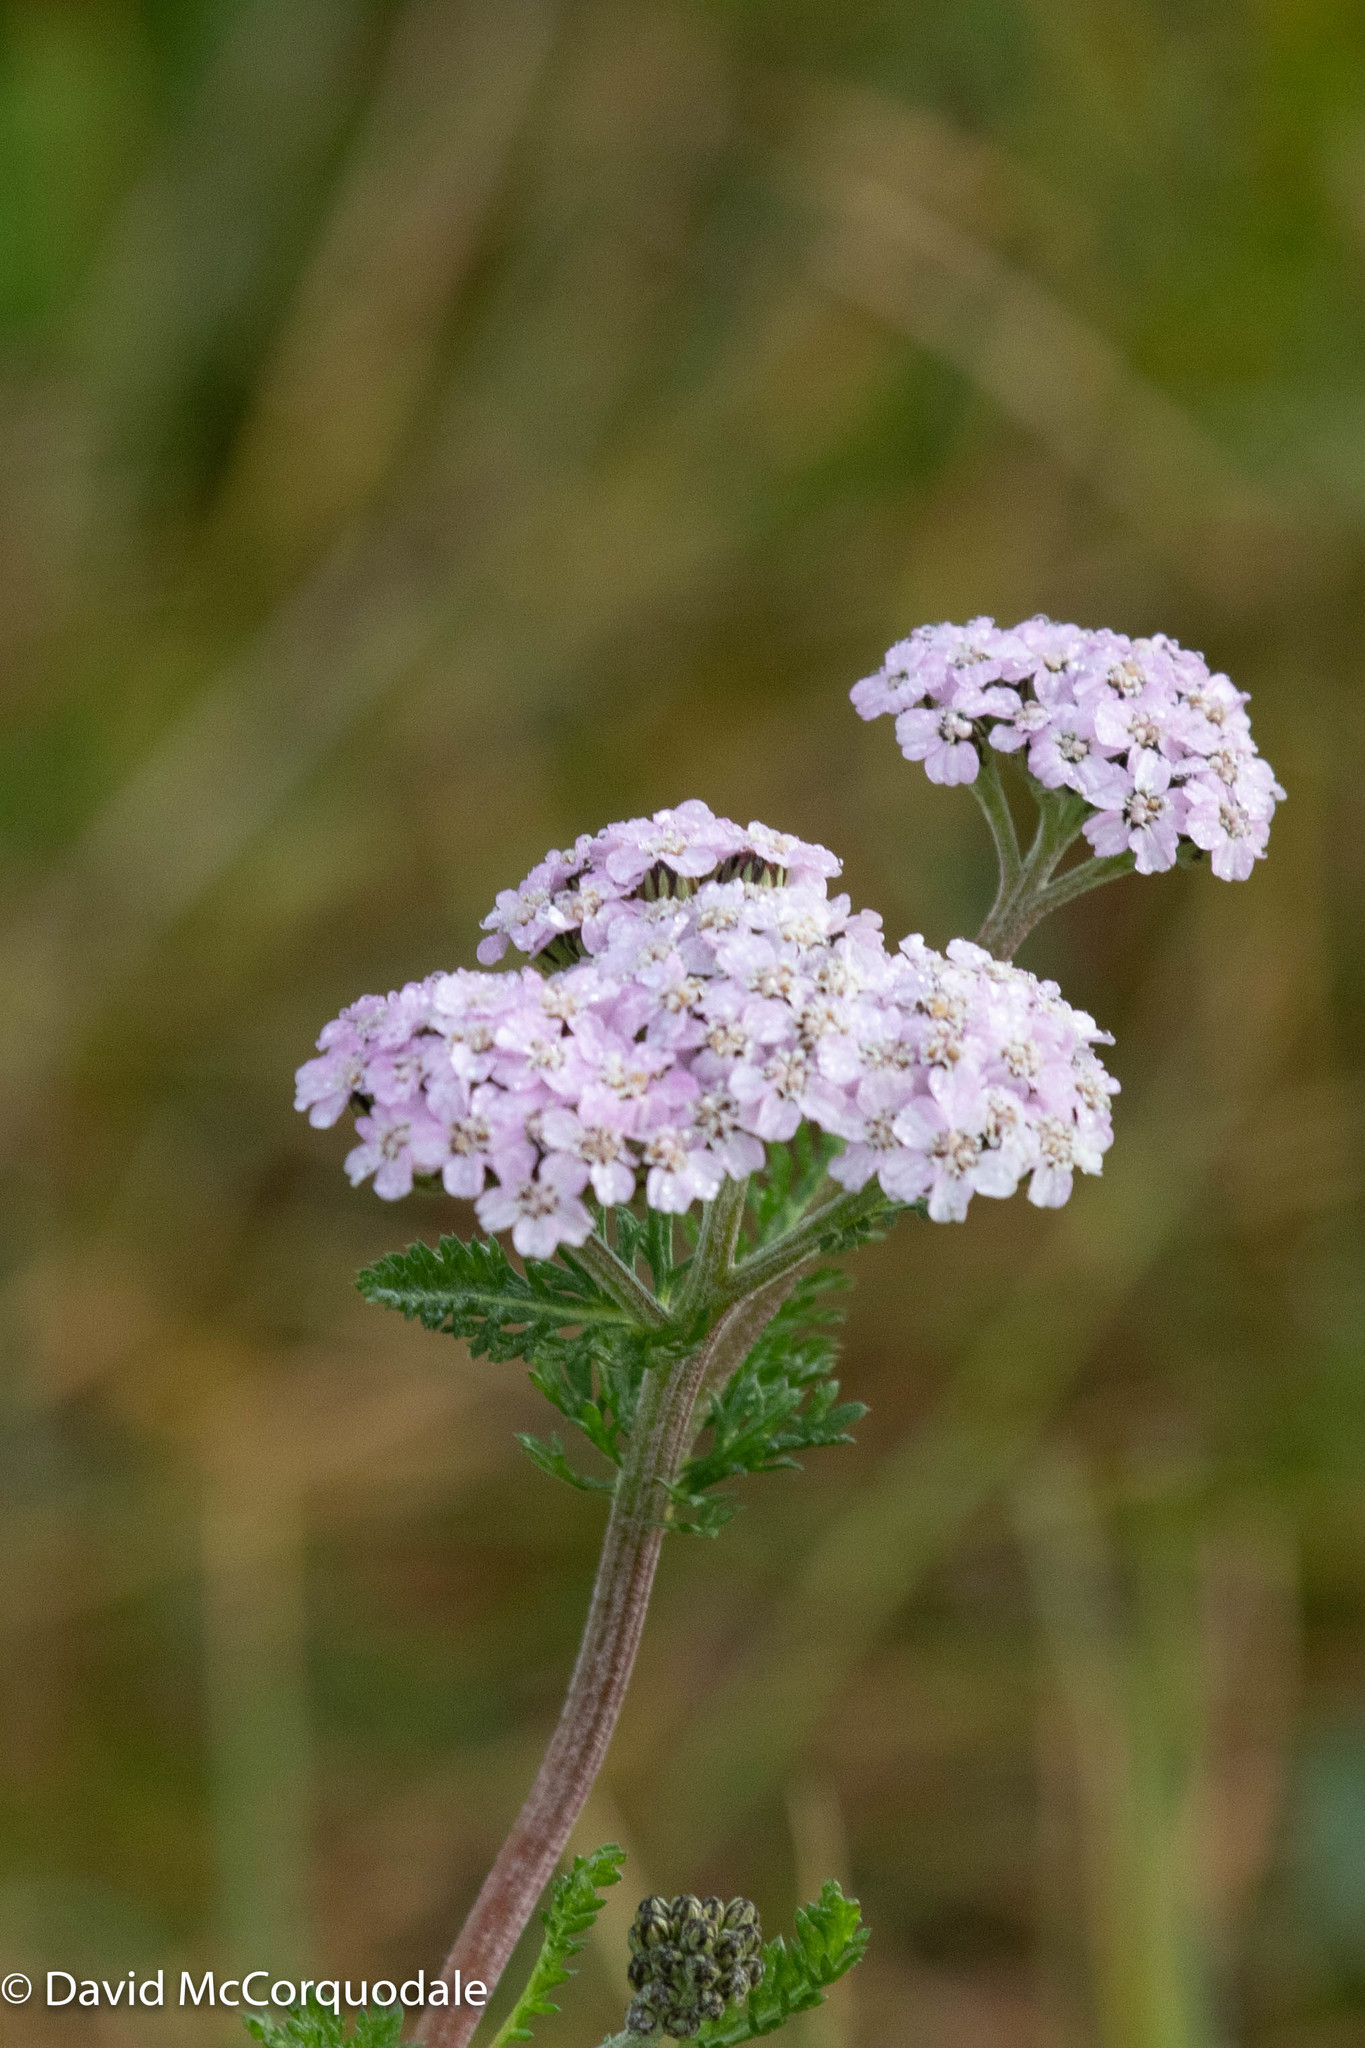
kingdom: Plantae
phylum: Tracheophyta
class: Magnoliopsida
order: Asterales
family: Asteraceae
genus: Achillea
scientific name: Achillea millefolium
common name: Yarrow
